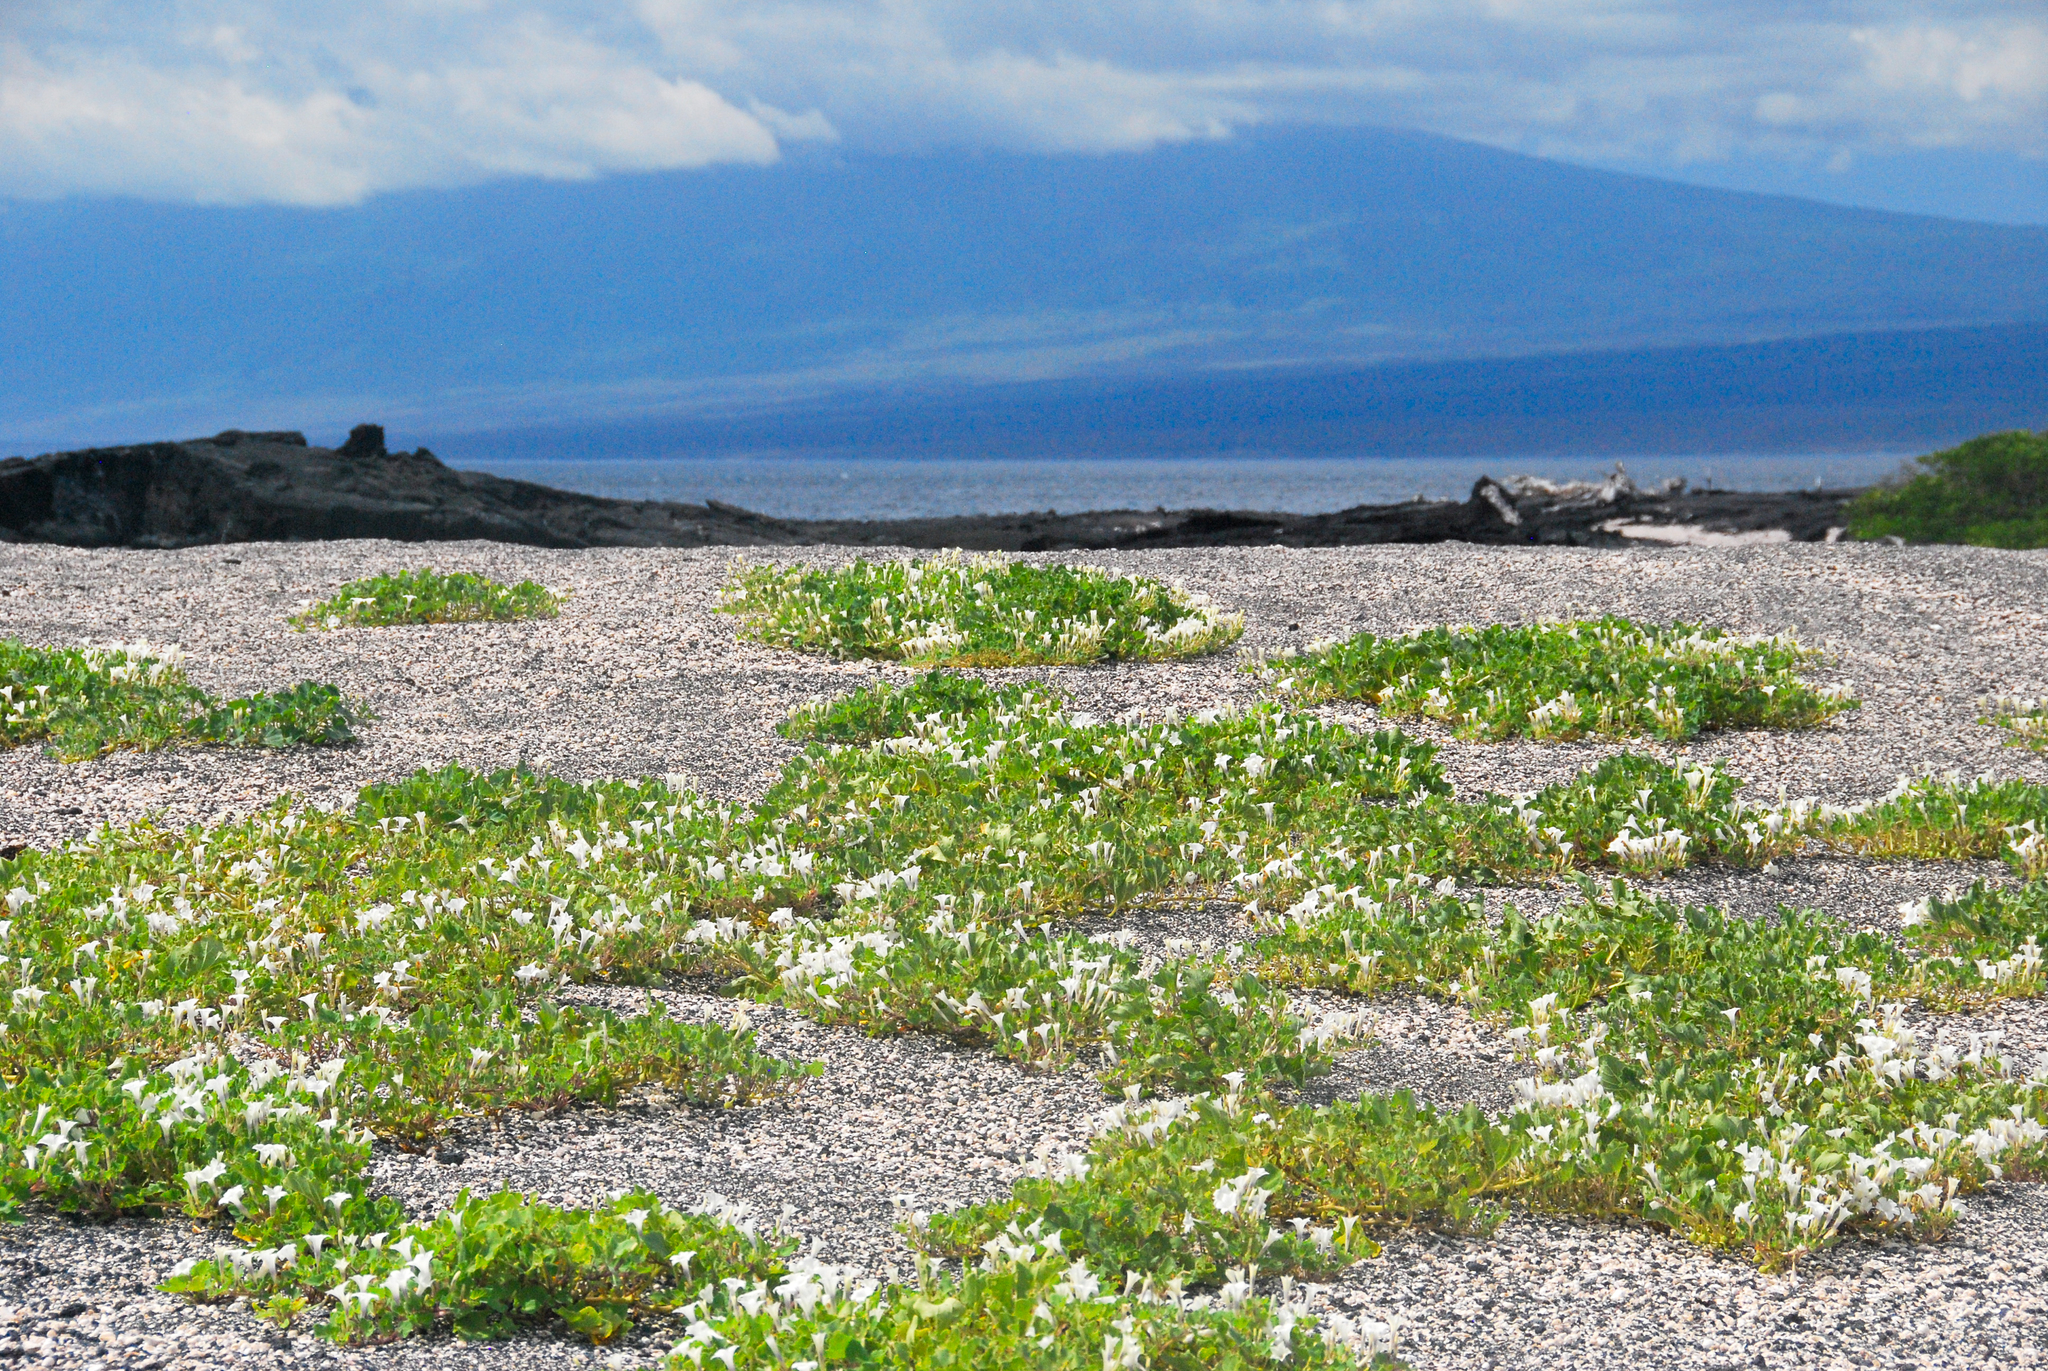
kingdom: Plantae
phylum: Tracheophyta
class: Magnoliopsida
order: Solanales
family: Solanaceae
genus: Exodeconus
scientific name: Exodeconus miersii
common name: Galapagos shore petunia
